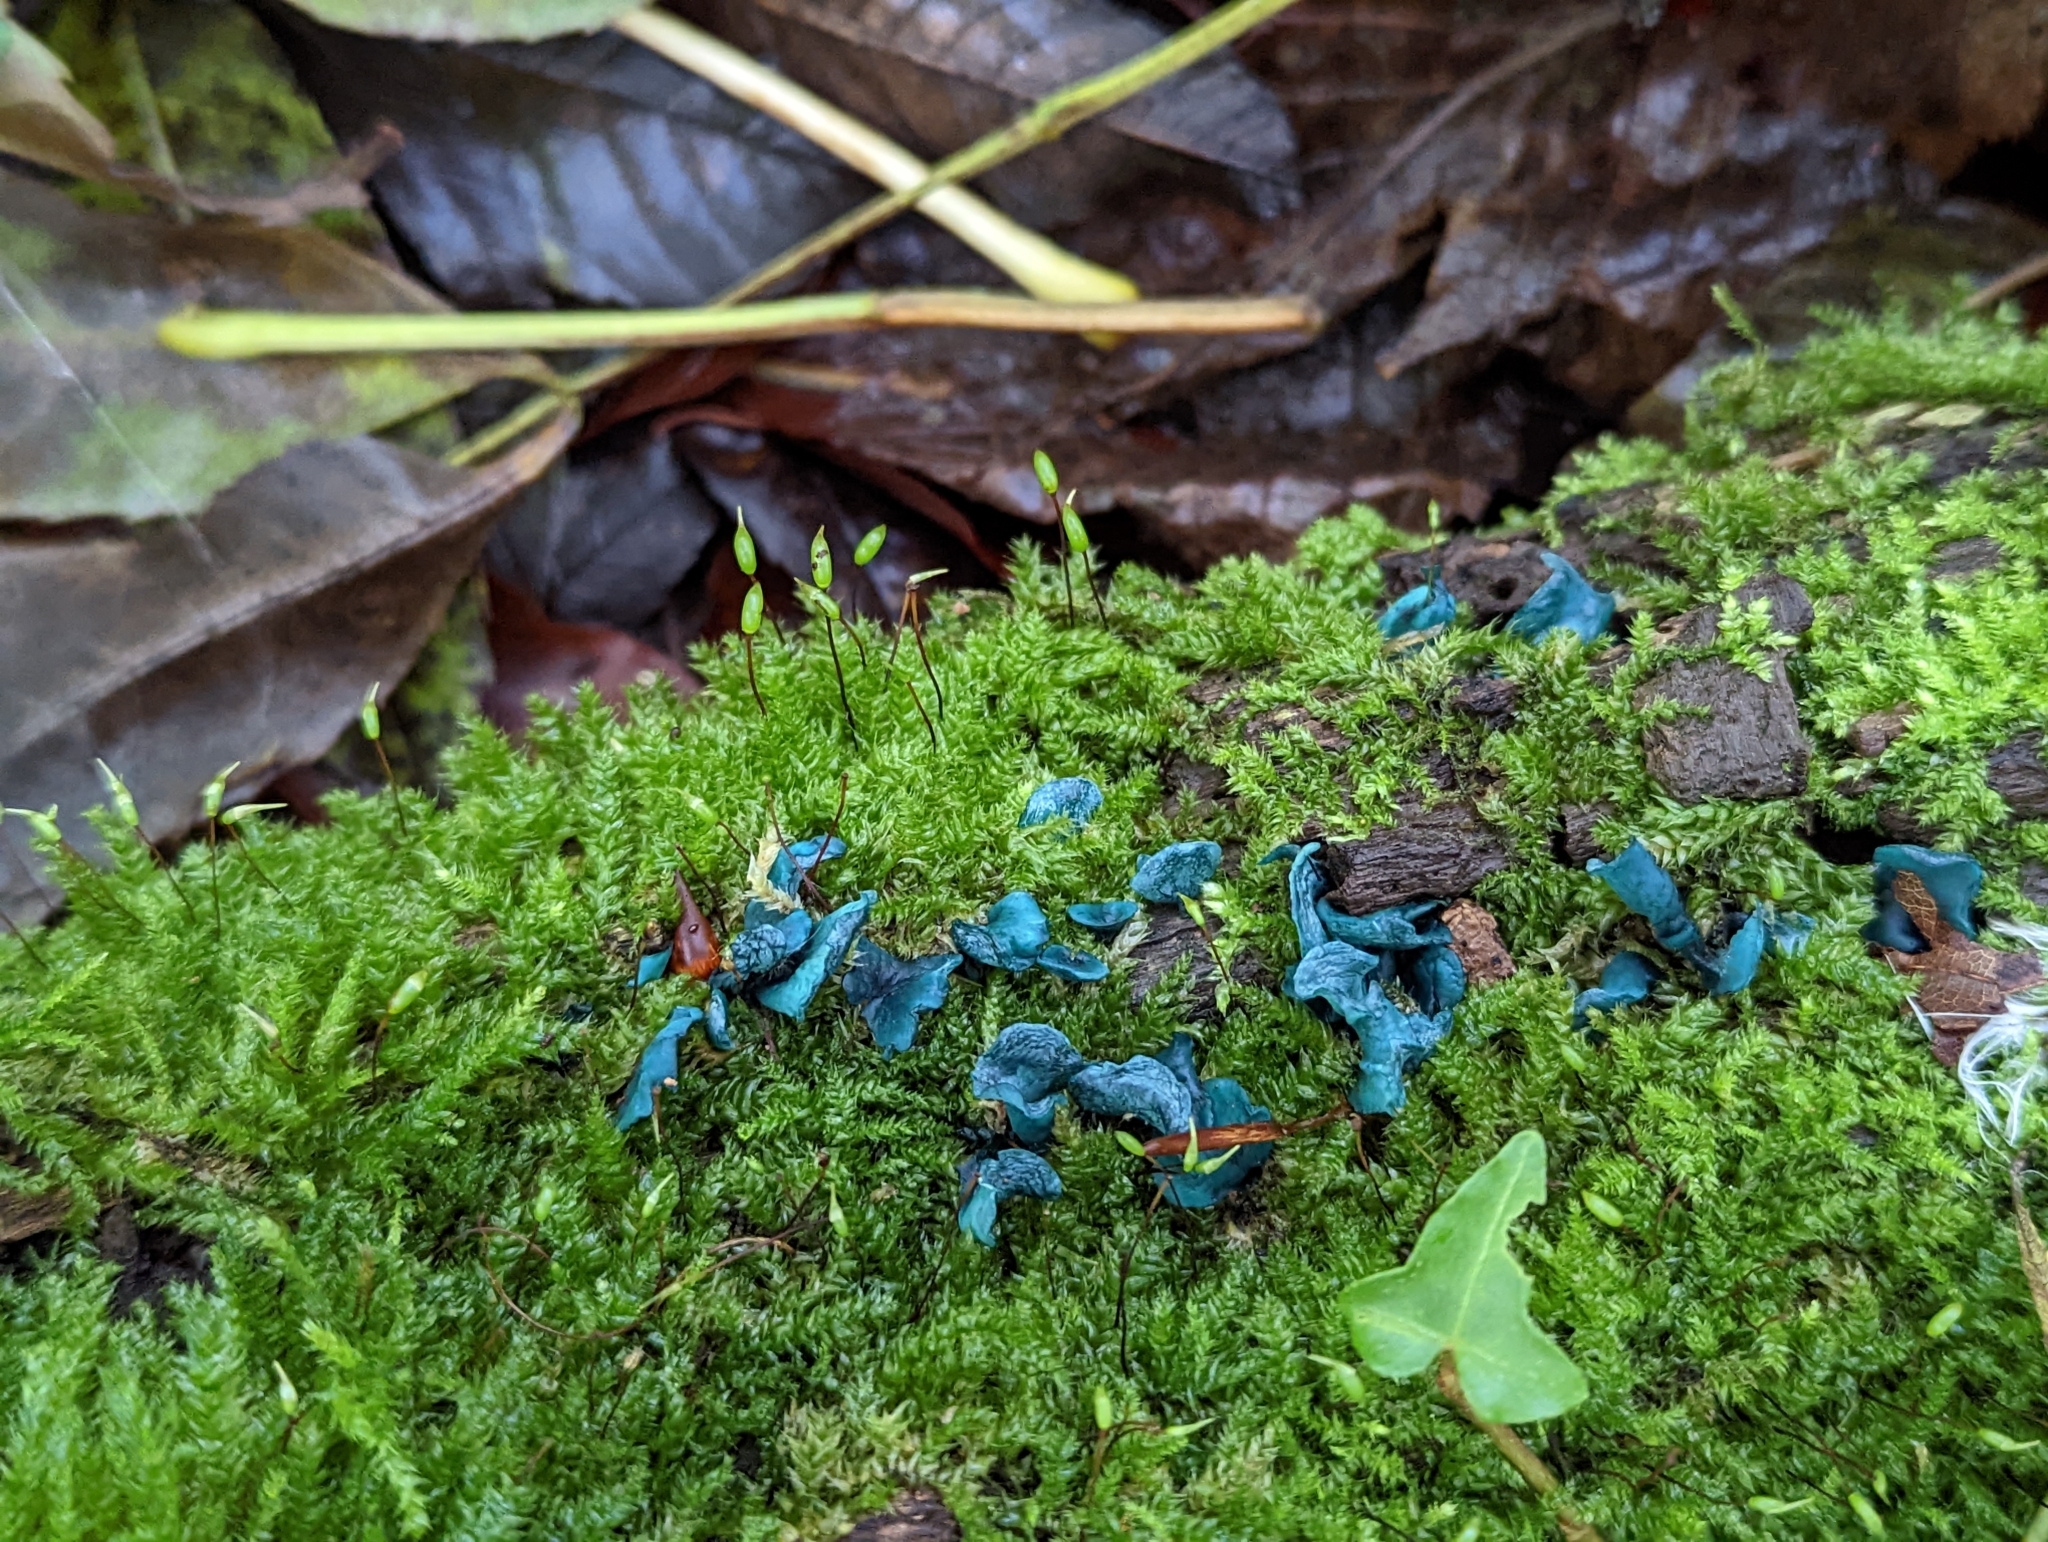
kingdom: Fungi
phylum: Ascomycota
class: Leotiomycetes
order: Helotiales
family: Chlorociboriaceae
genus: Chlorociboria
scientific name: Chlorociboria aeruginascens
